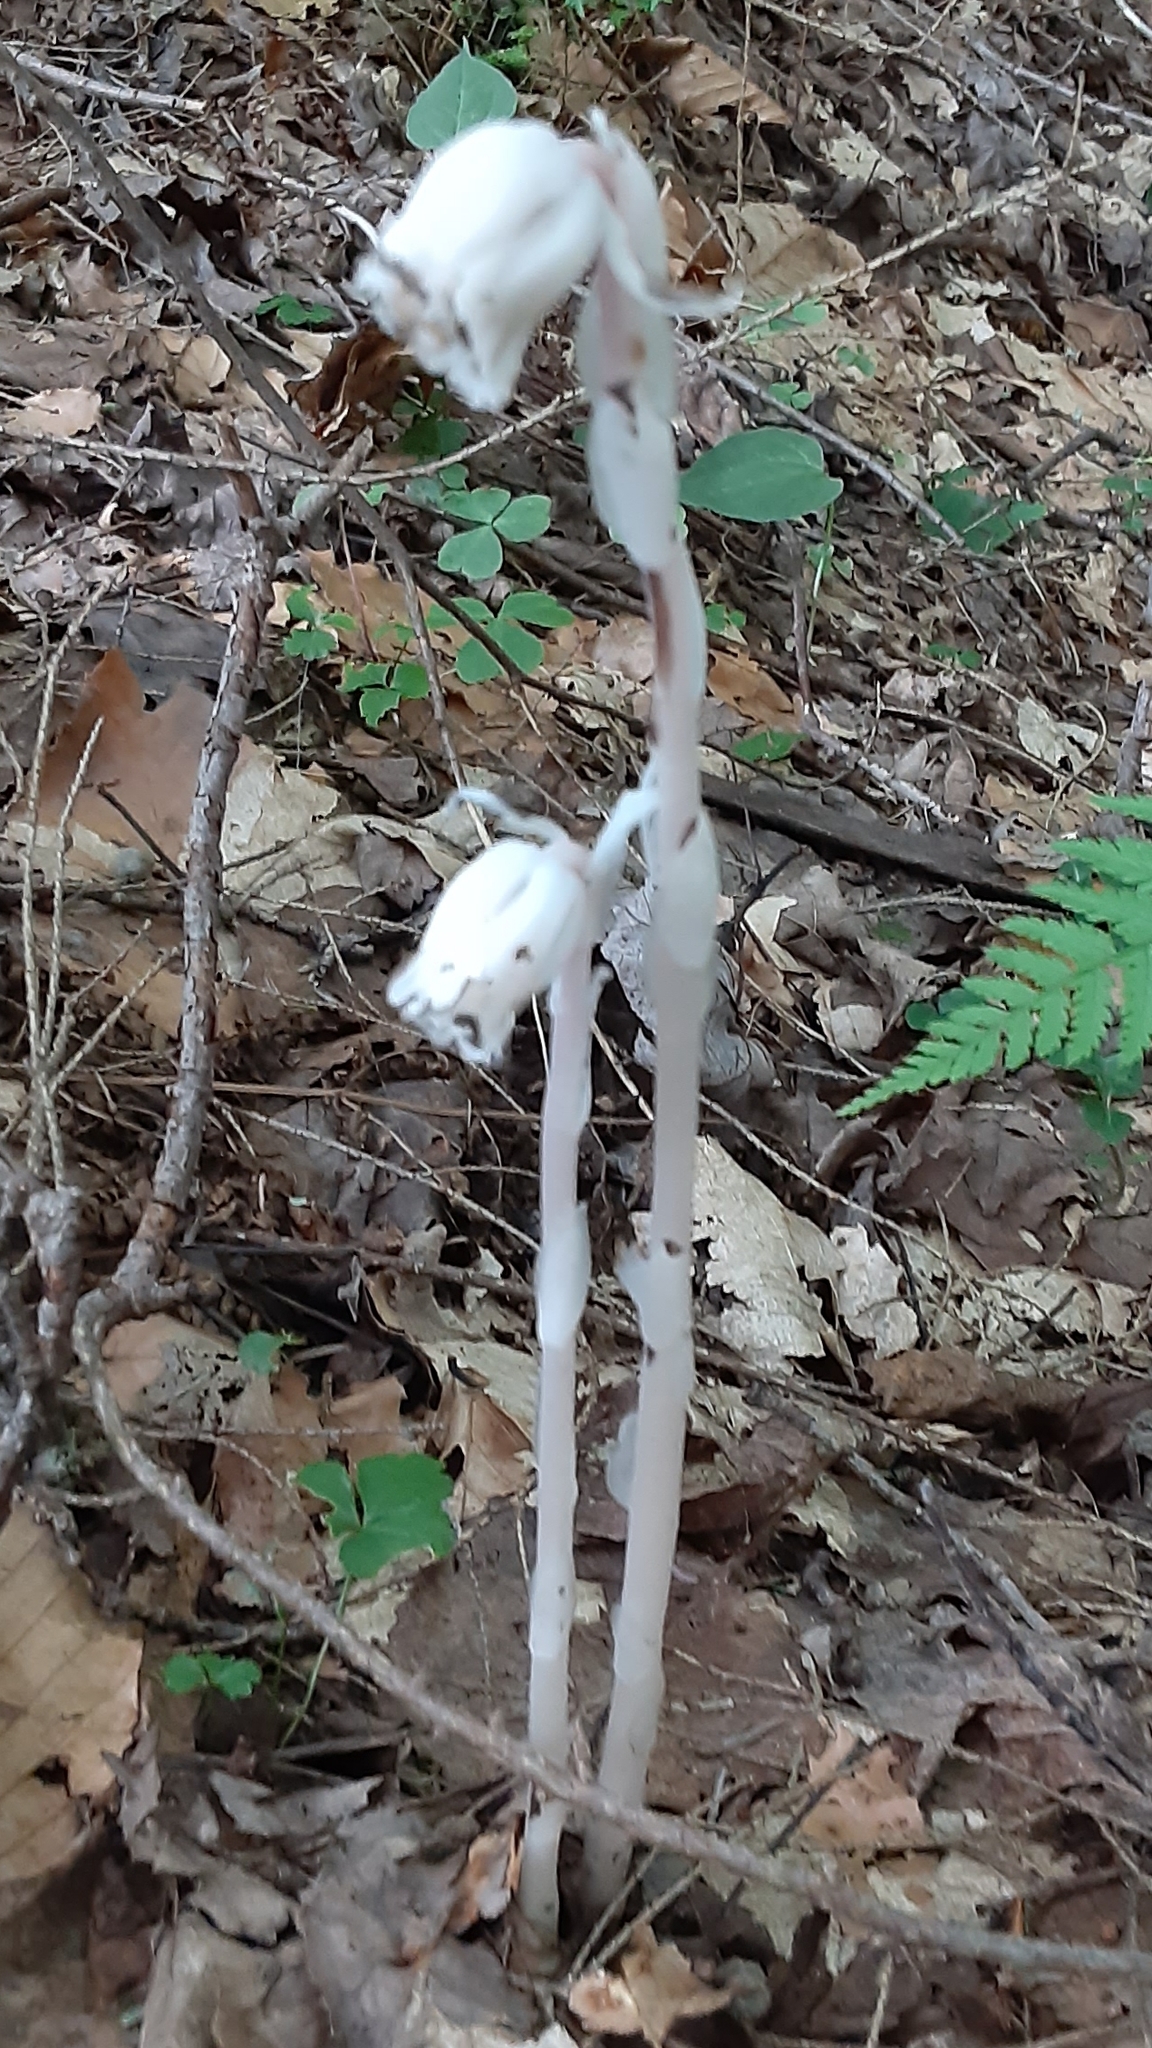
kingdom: Plantae
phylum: Tracheophyta
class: Magnoliopsida
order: Ericales
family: Ericaceae
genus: Monotropa
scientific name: Monotropa uniflora
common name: Convulsion root
